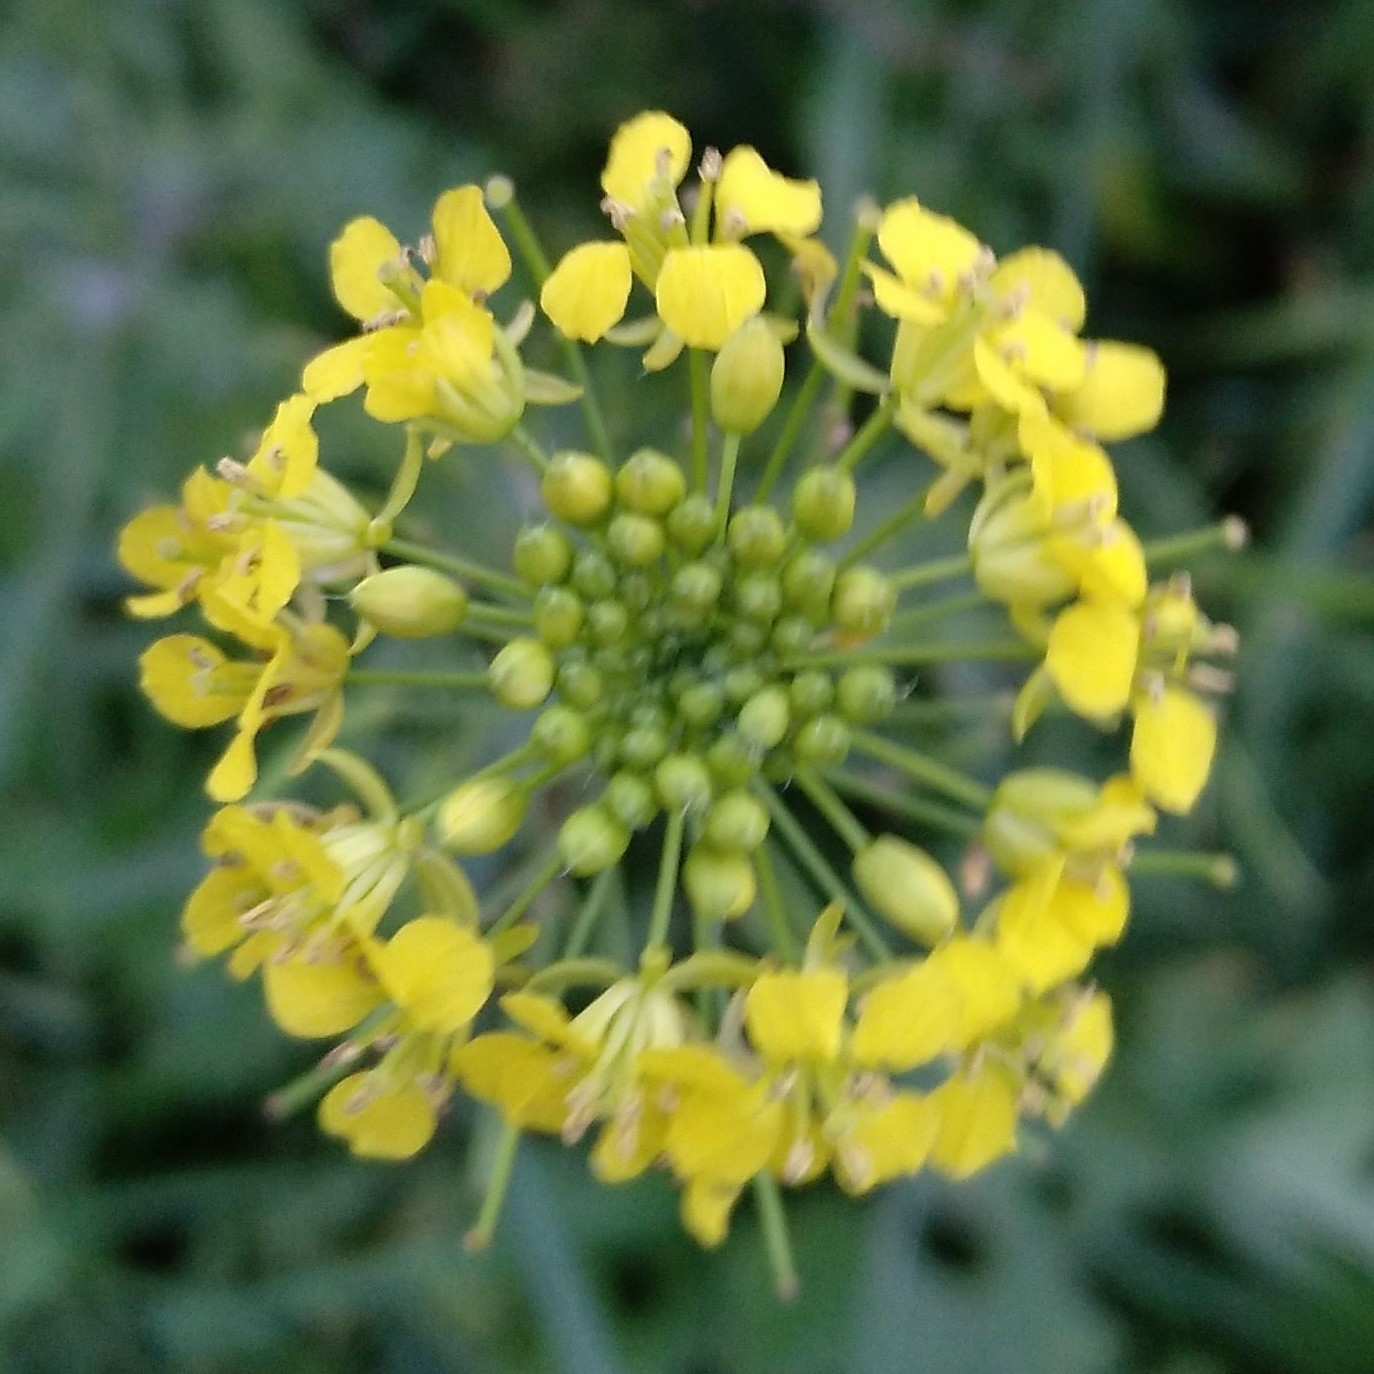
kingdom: Plantae
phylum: Tracheophyta
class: Magnoliopsida
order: Brassicales
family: Brassicaceae
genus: Sisymbrium
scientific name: Sisymbrium loeselii
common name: False london-rocket
